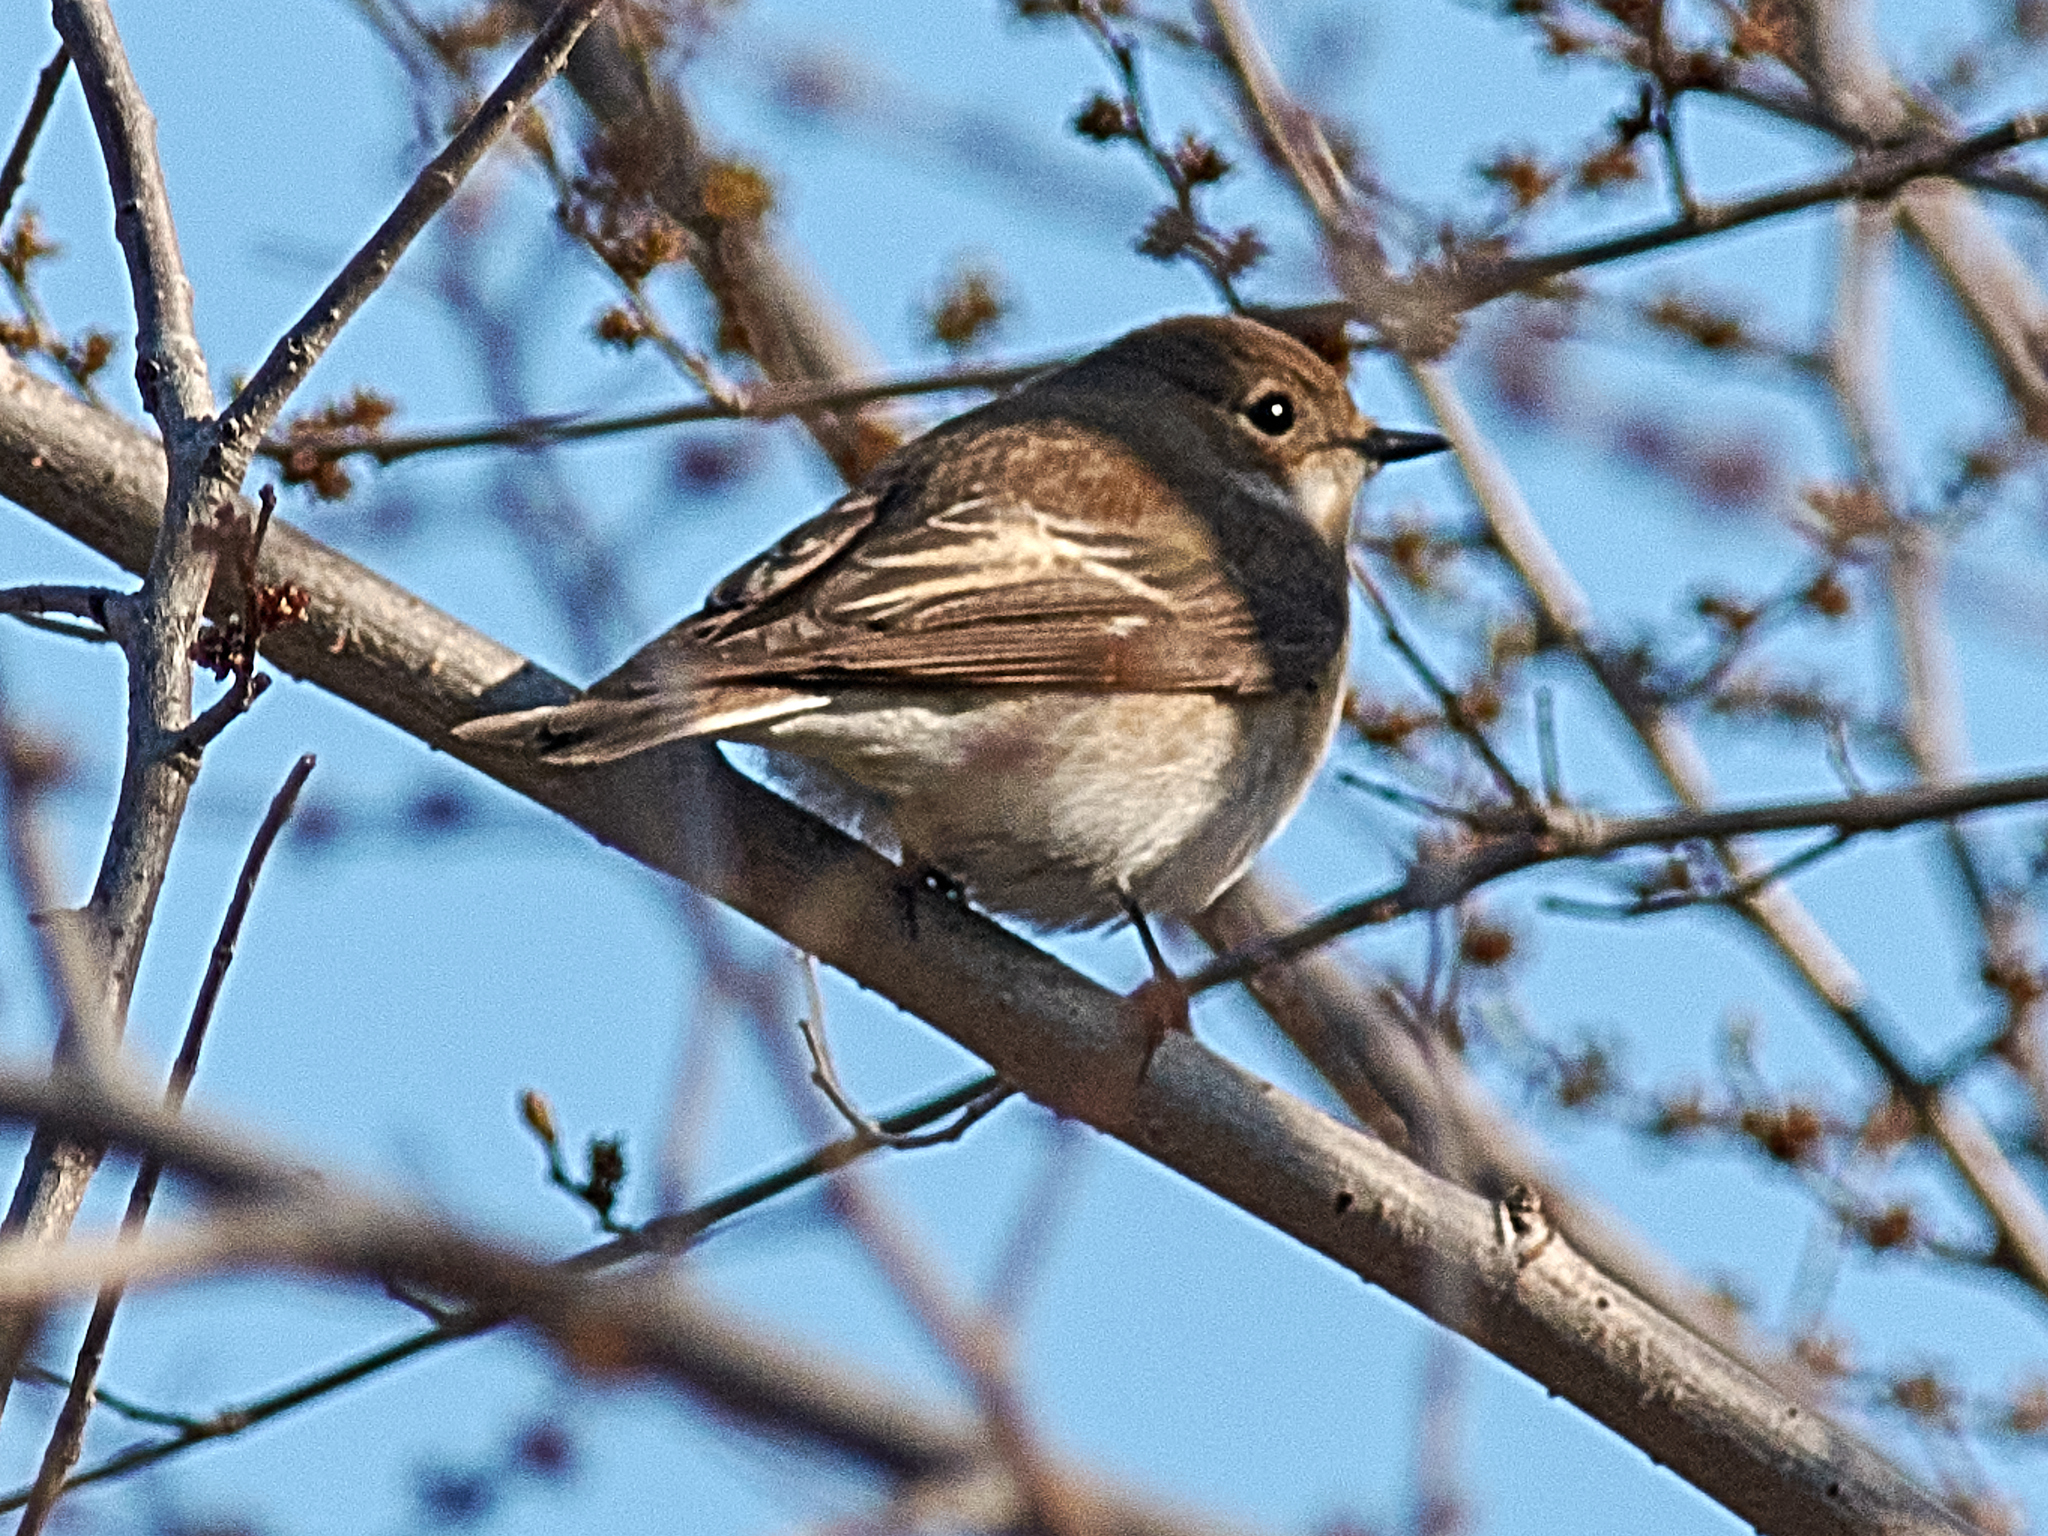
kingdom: Animalia
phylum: Chordata
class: Aves
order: Passeriformes
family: Muscicapidae
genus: Ficedula
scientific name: Ficedula hypoleuca
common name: European pied flycatcher
